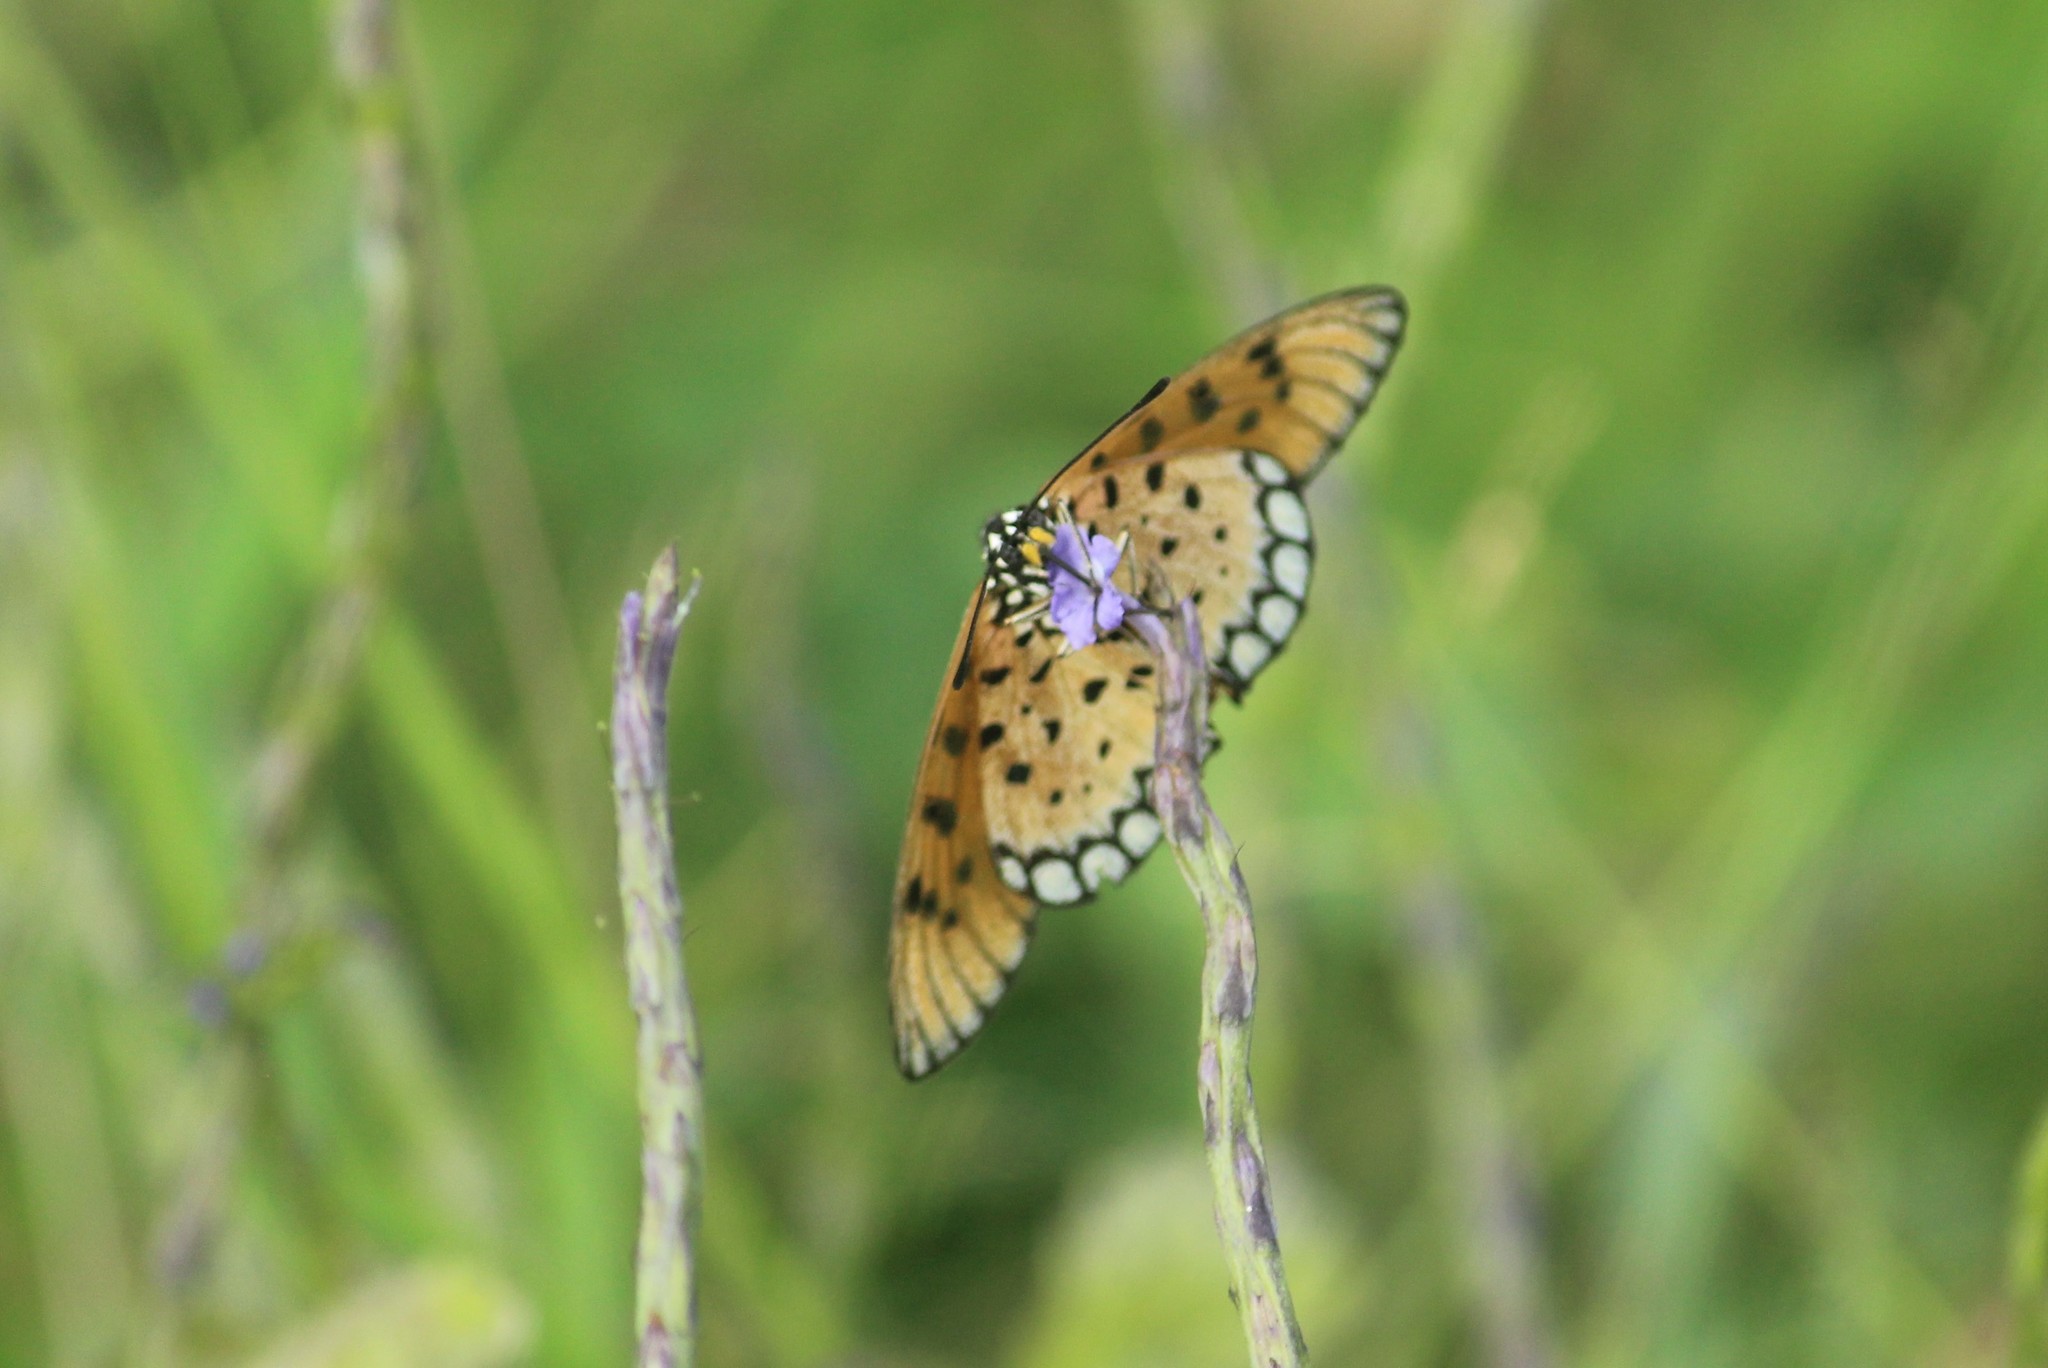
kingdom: Animalia
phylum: Arthropoda
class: Insecta
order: Lepidoptera
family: Nymphalidae
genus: Acraea
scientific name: Acraea terpsicore
